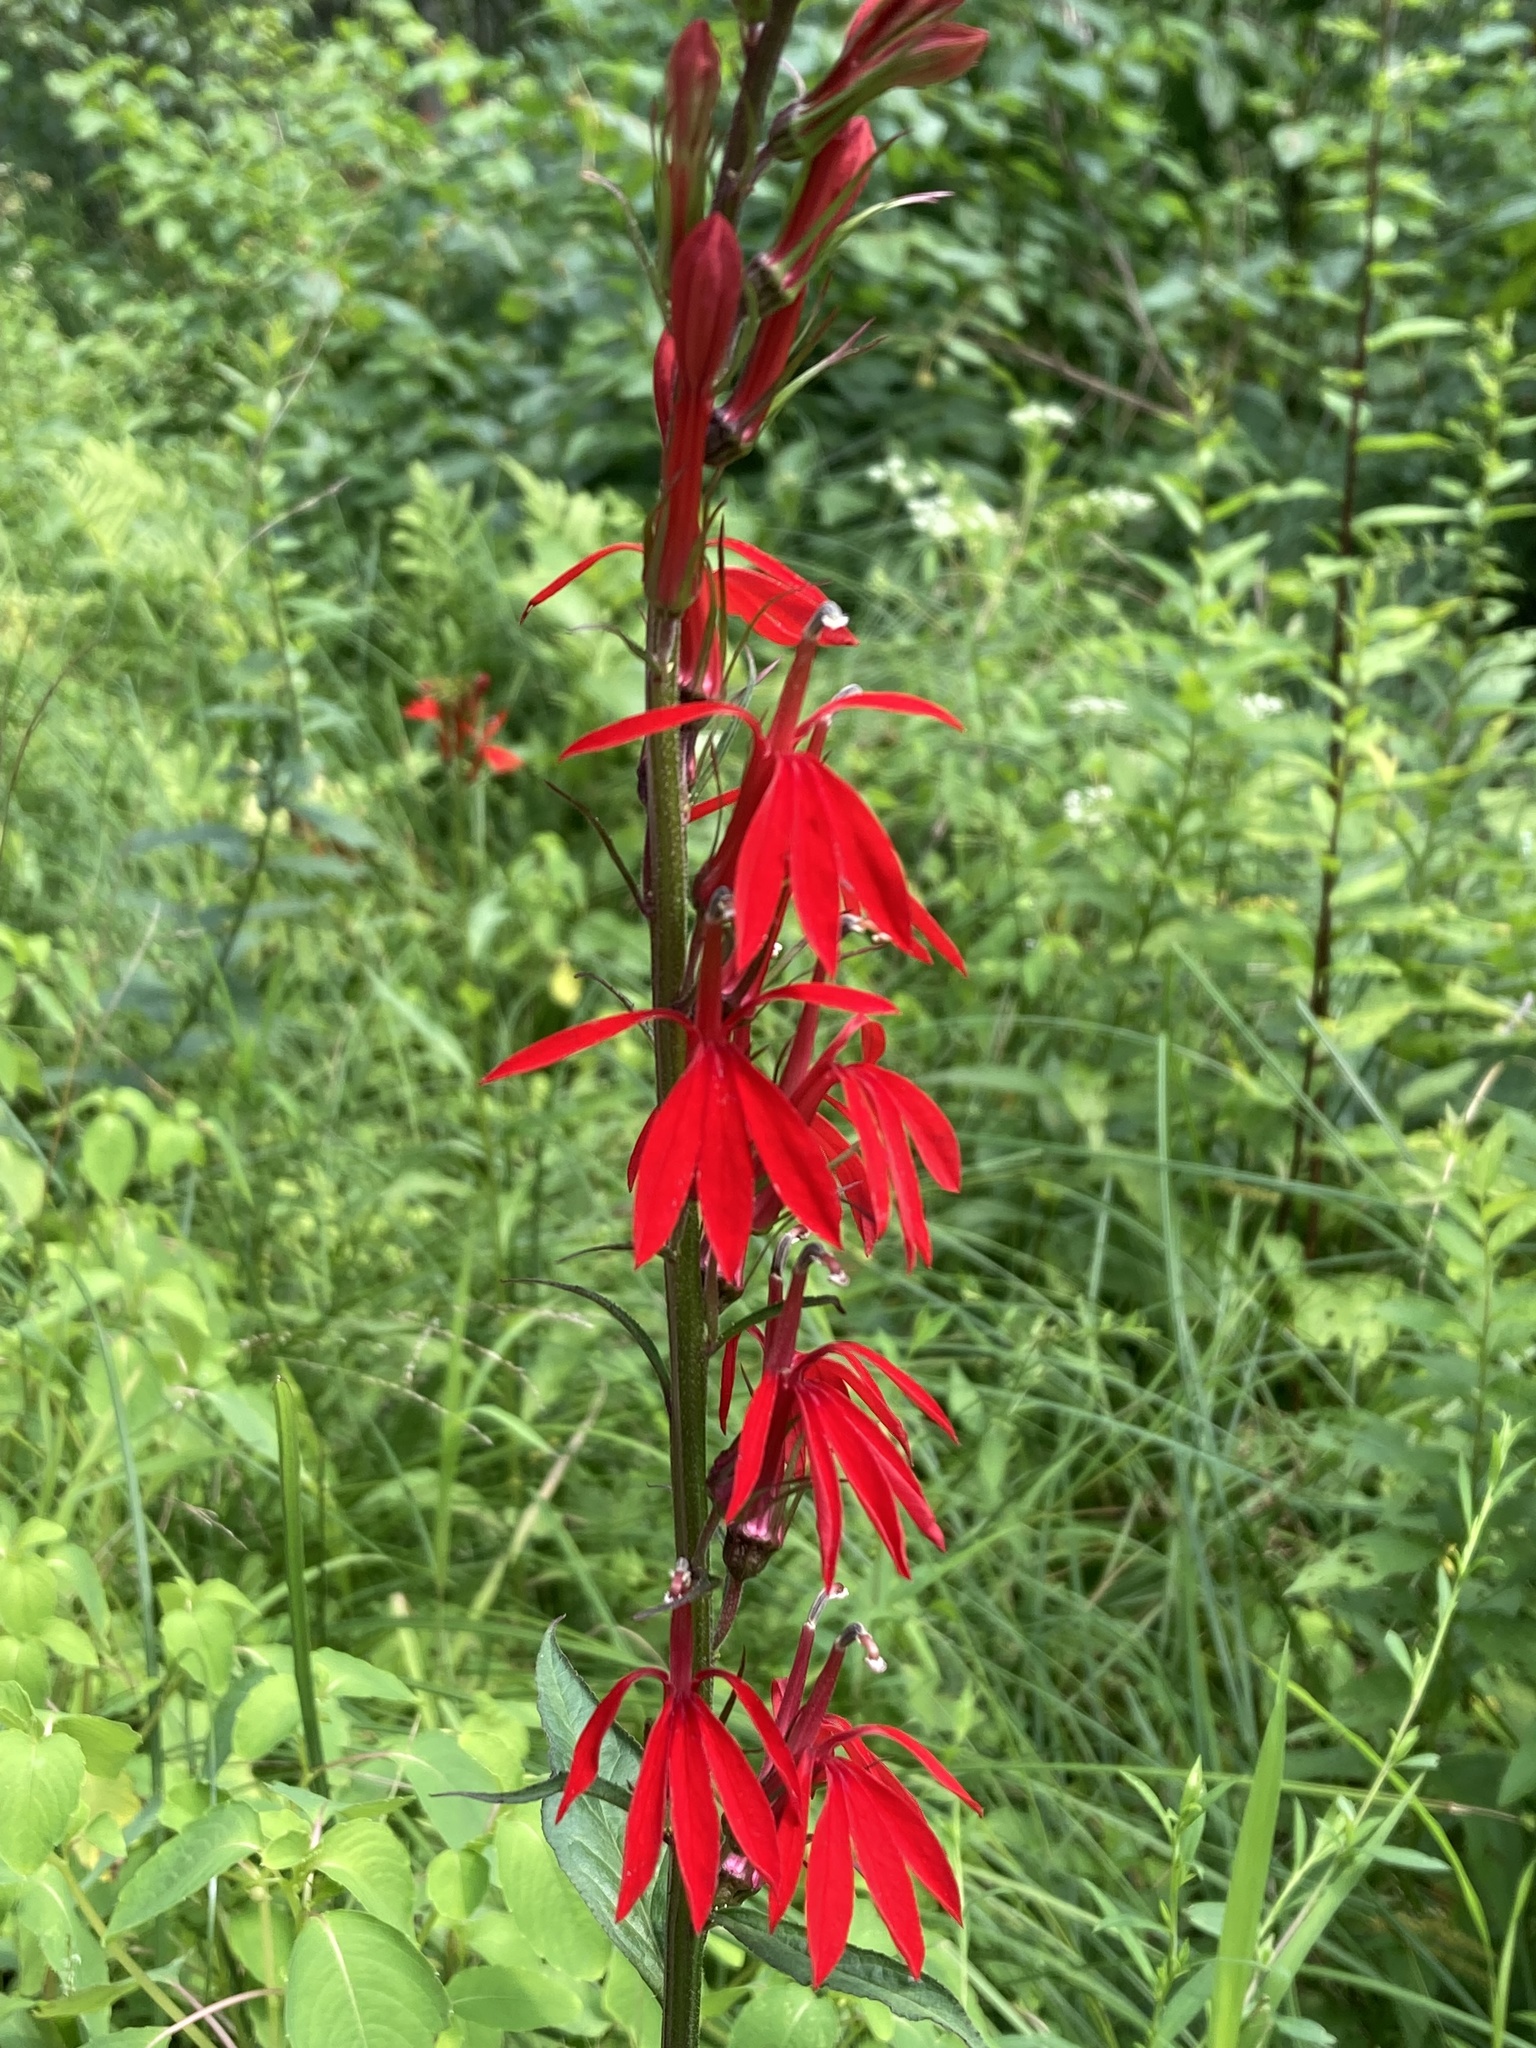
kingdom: Plantae
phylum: Tracheophyta
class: Magnoliopsida
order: Asterales
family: Campanulaceae
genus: Lobelia
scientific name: Lobelia cardinalis
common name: Cardinal flower
